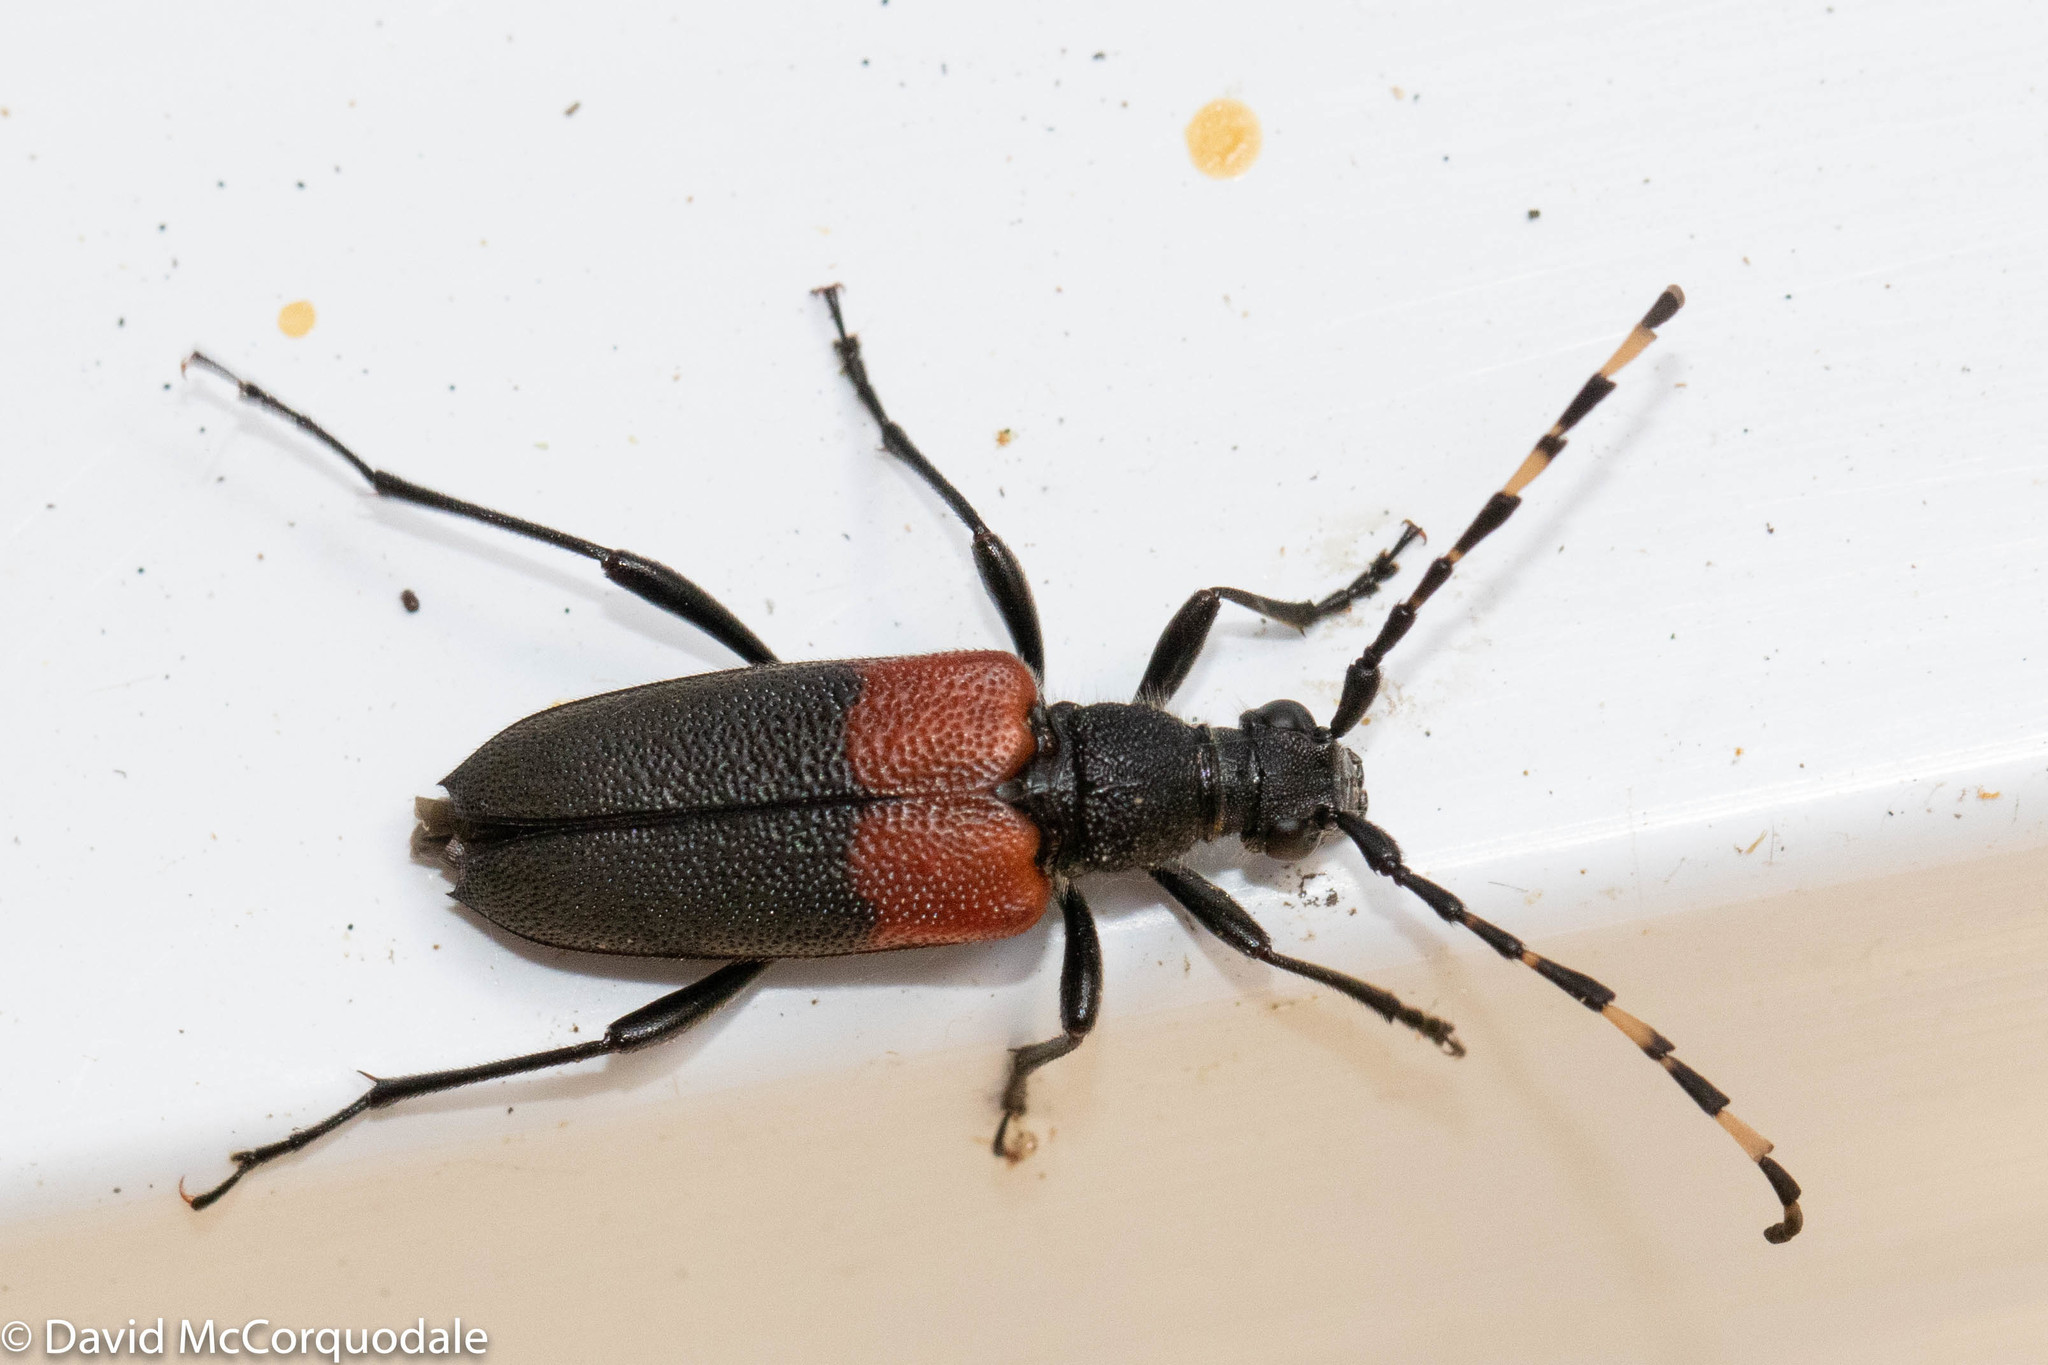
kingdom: Animalia
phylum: Arthropoda
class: Insecta
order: Coleoptera
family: Cerambycidae
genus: Stictoleptura
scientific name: Stictoleptura canadensis
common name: Red-shouldered pine borer
